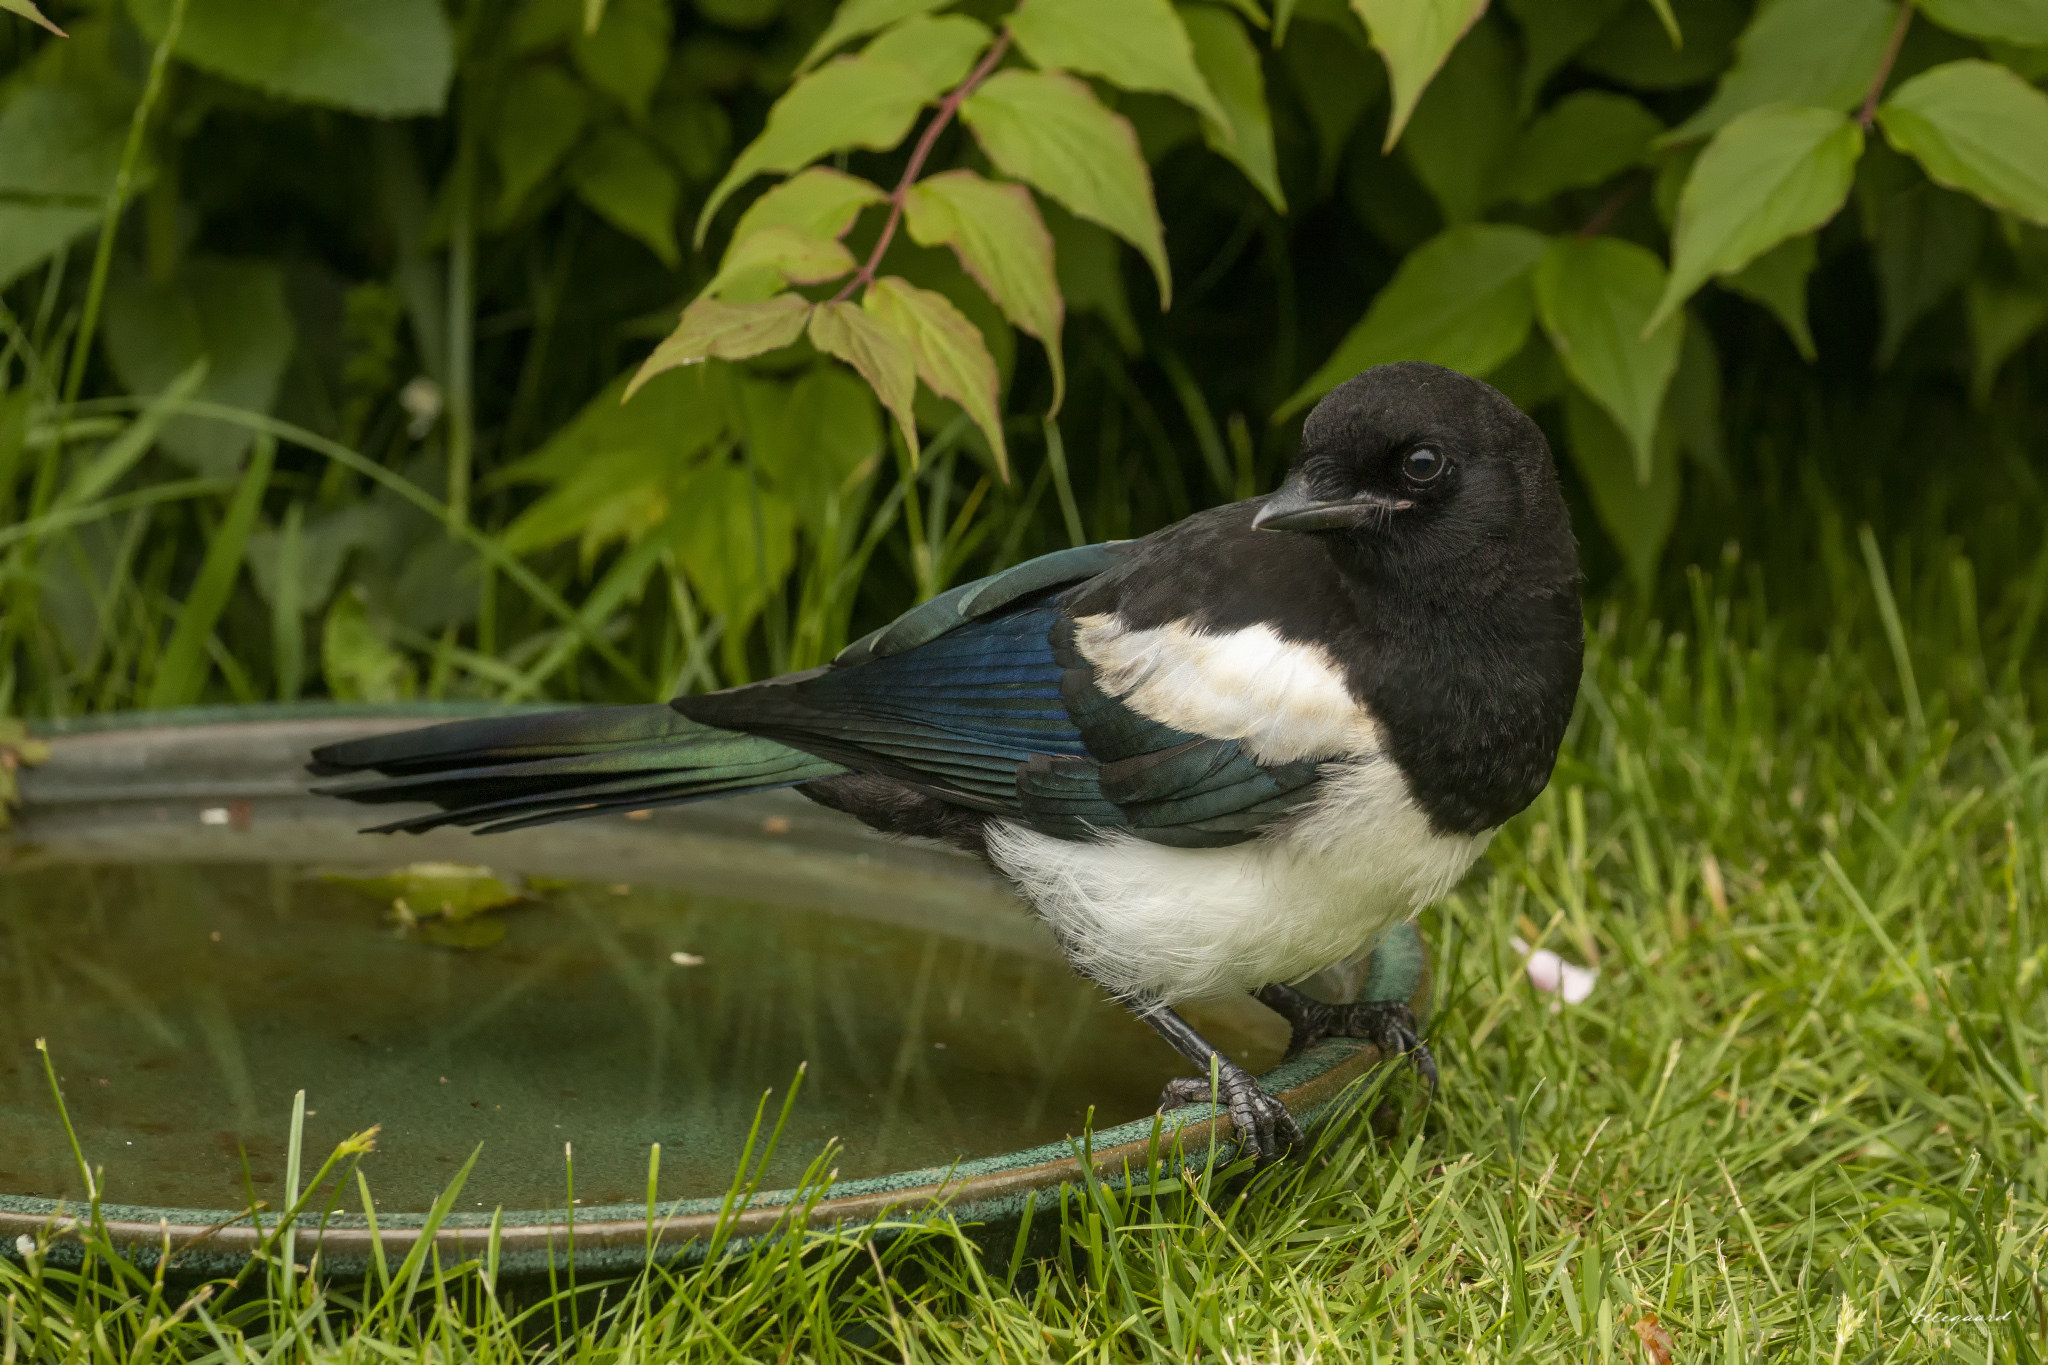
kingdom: Animalia
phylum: Chordata
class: Aves
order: Passeriformes
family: Corvidae
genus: Pica
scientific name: Pica pica
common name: Eurasian magpie
